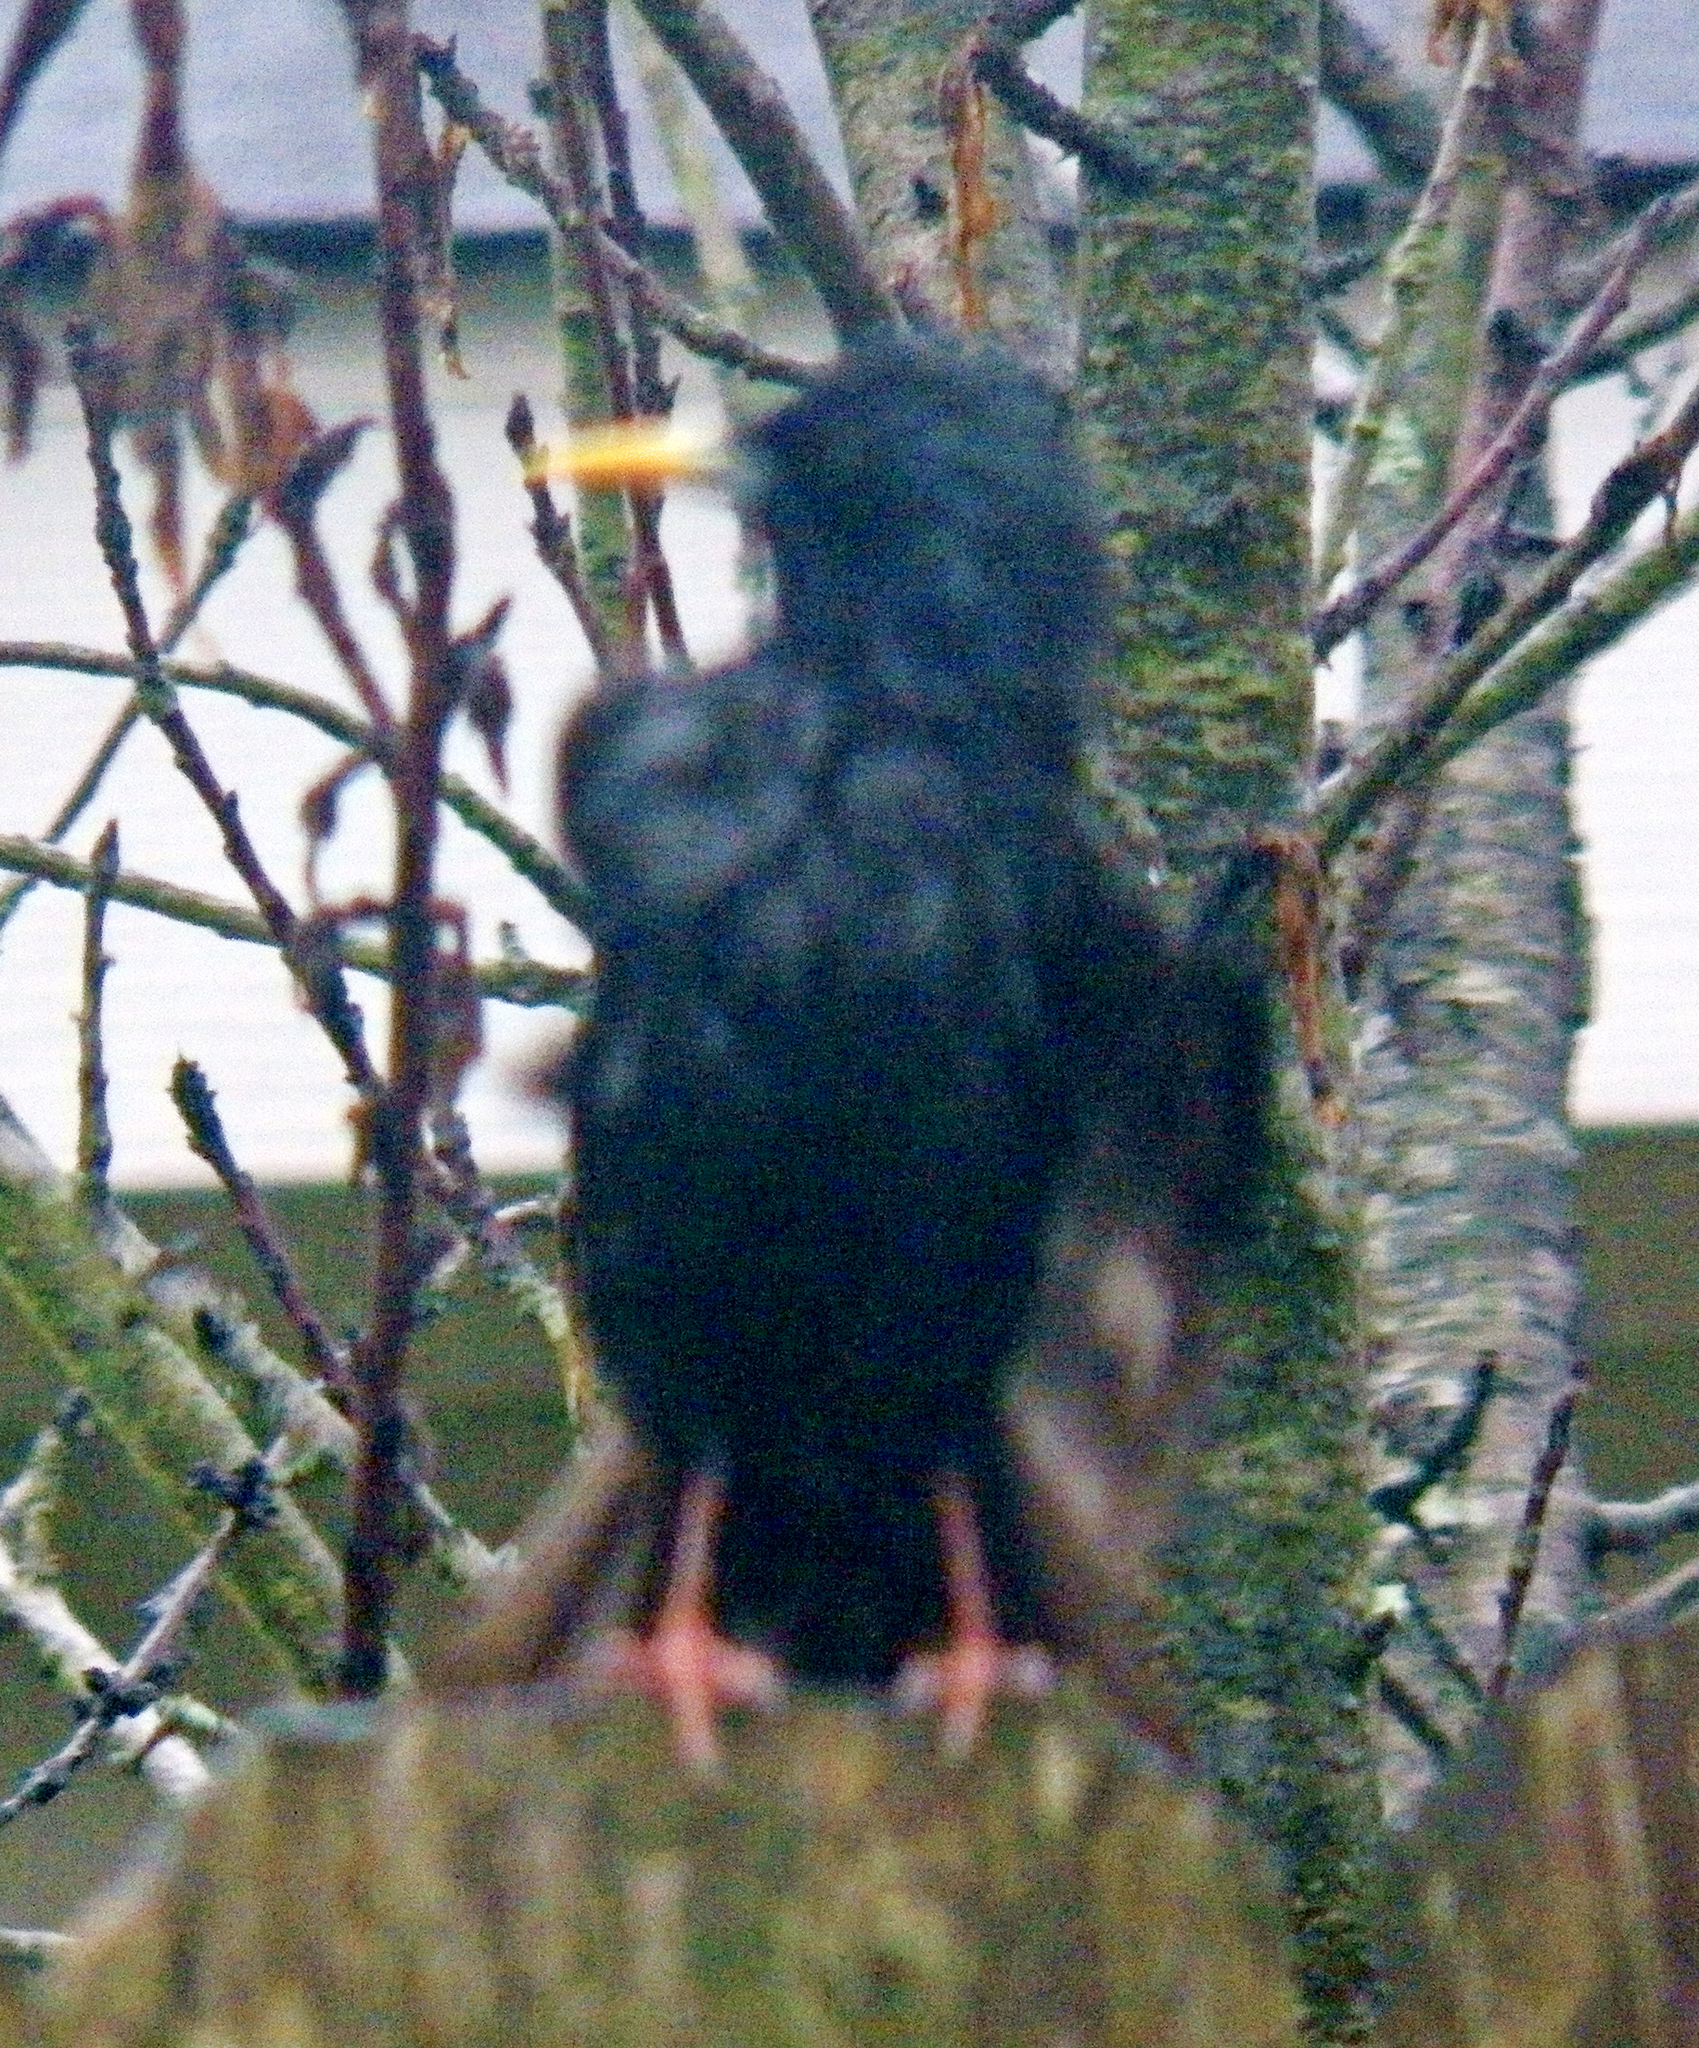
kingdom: Animalia
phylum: Chordata
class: Aves
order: Passeriformes
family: Sturnidae
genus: Sturnus
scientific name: Sturnus vulgaris
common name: Common starling
